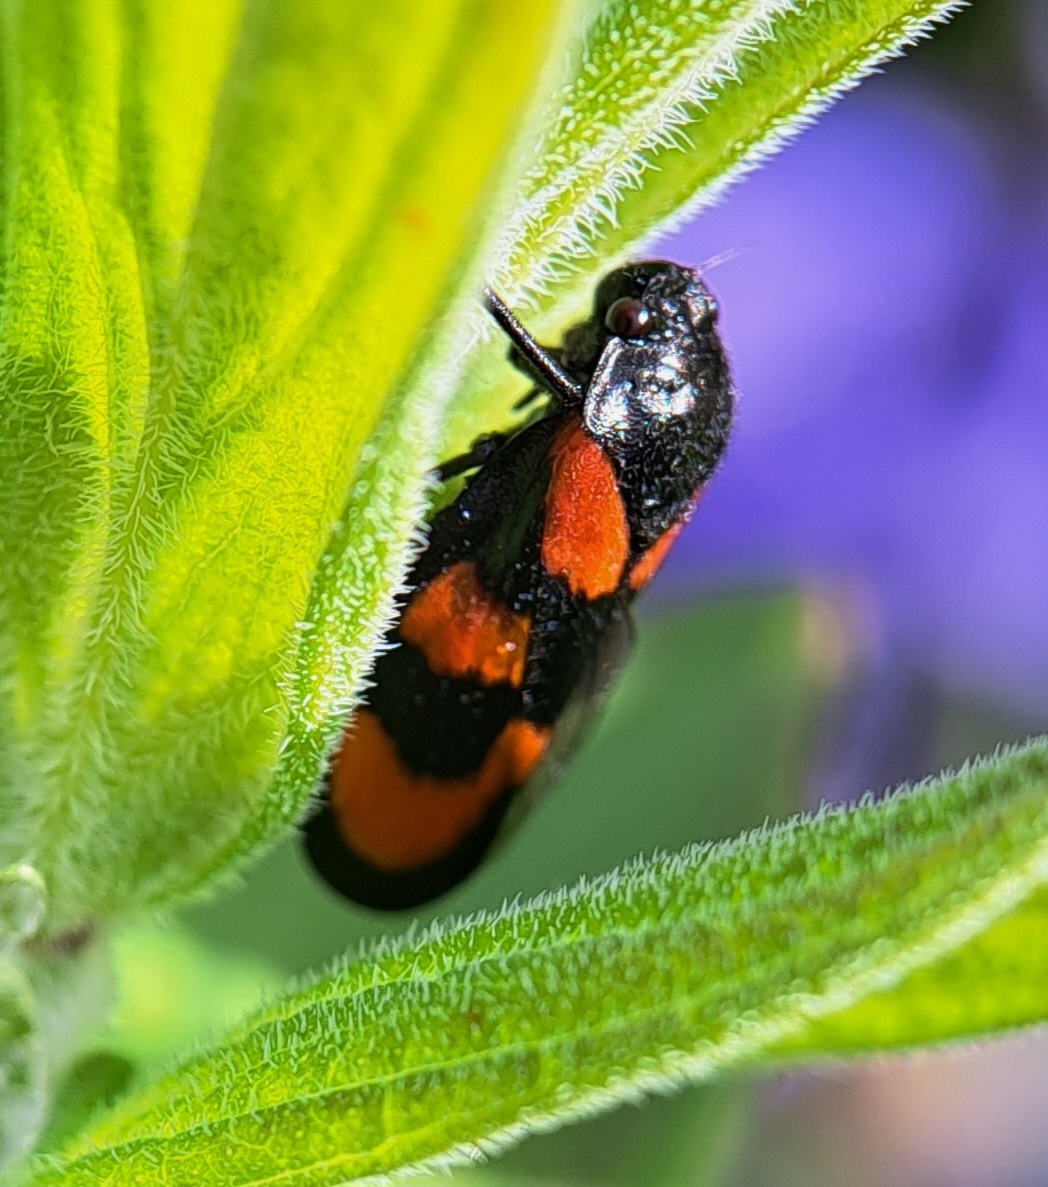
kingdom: Animalia
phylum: Arthropoda
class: Insecta
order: Hemiptera
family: Cercopidae
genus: Cercopis
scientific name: Cercopis vulnerata
